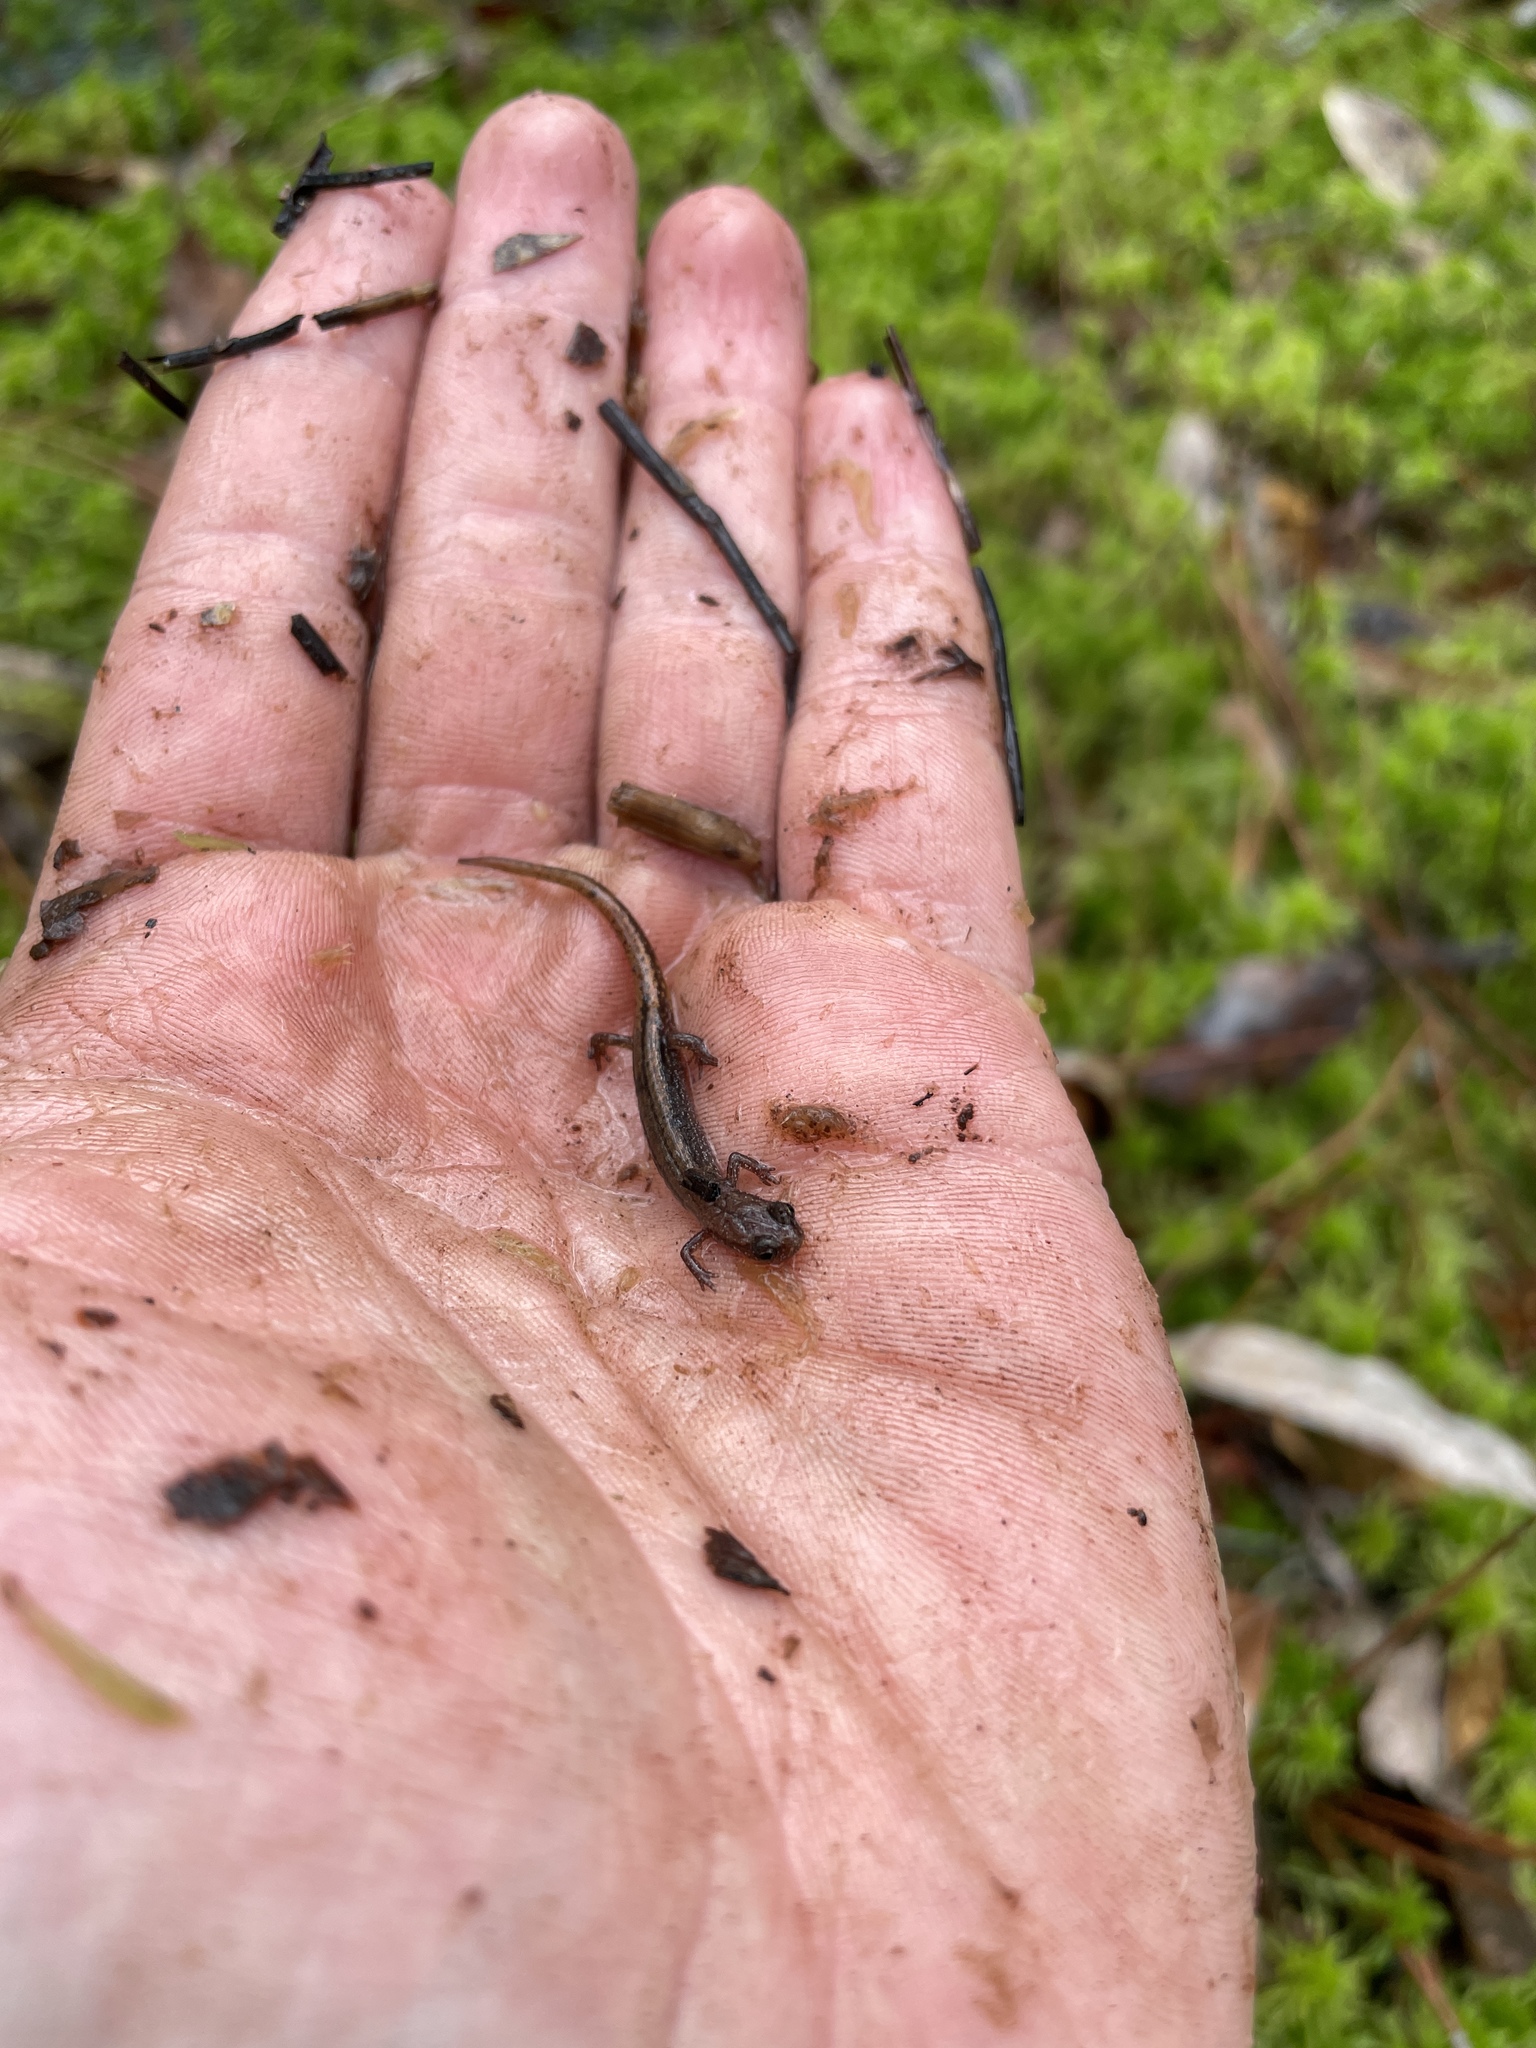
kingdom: Animalia
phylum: Chordata
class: Amphibia
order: Caudata
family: Plethodontidae
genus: Eurycea
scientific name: Eurycea sphagnicola
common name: Bog dwarf salamander
